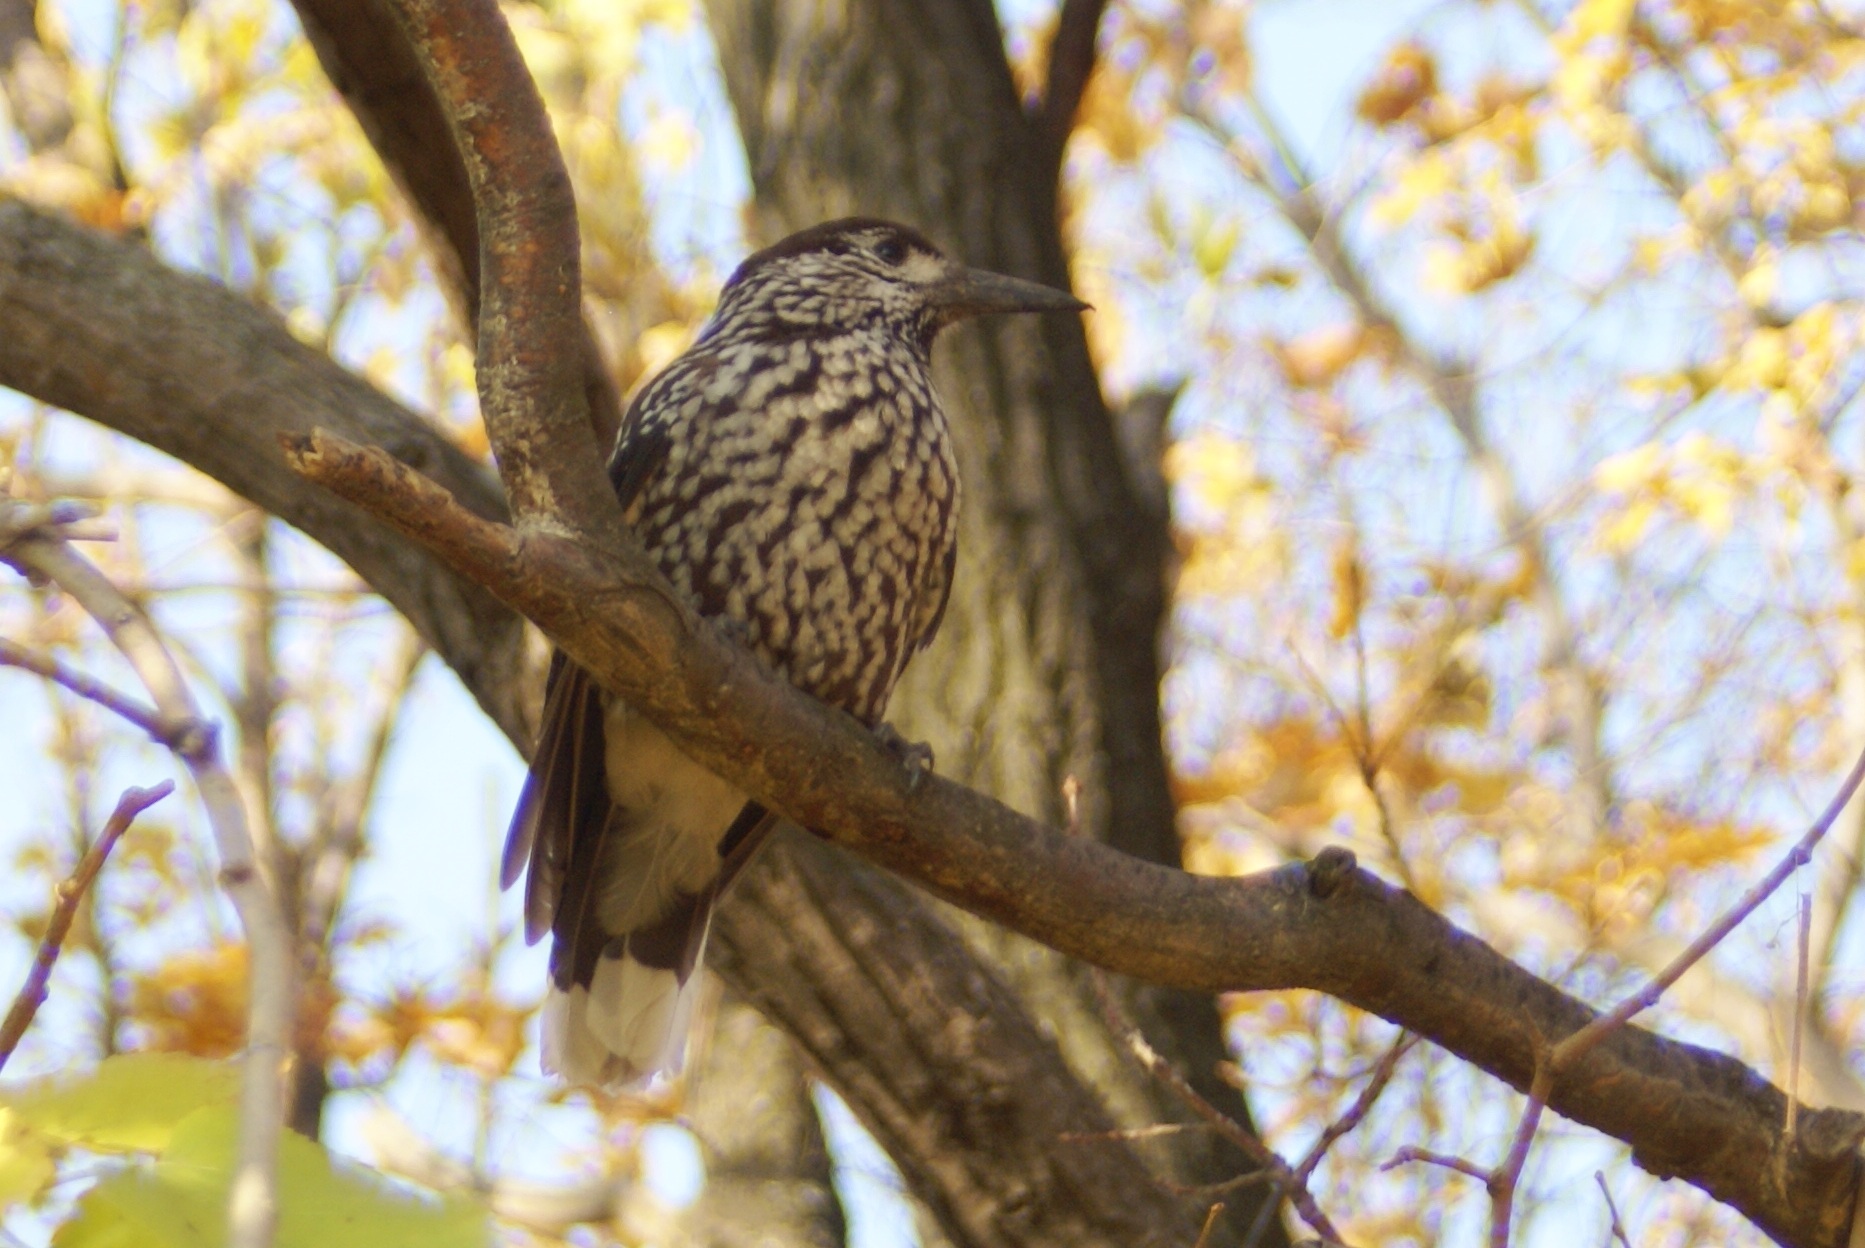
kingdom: Animalia
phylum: Chordata
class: Aves
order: Passeriformes
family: Corvidae
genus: Nucifraga
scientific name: Nucifraga caryocatactes
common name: Spotted nutcracker
